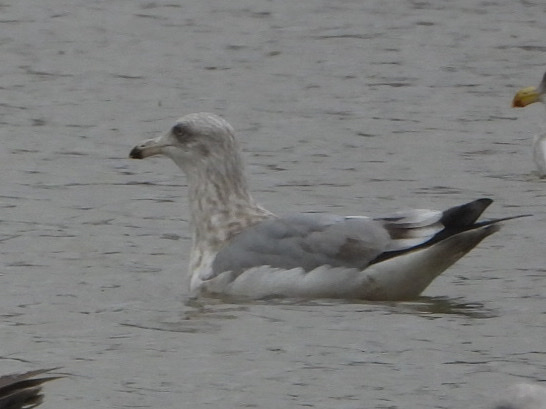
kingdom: Animalia
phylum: Chordata
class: Aves
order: Charadriiformes
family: Laridae
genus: Larus
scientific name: Larus argentatus
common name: Herring gull
